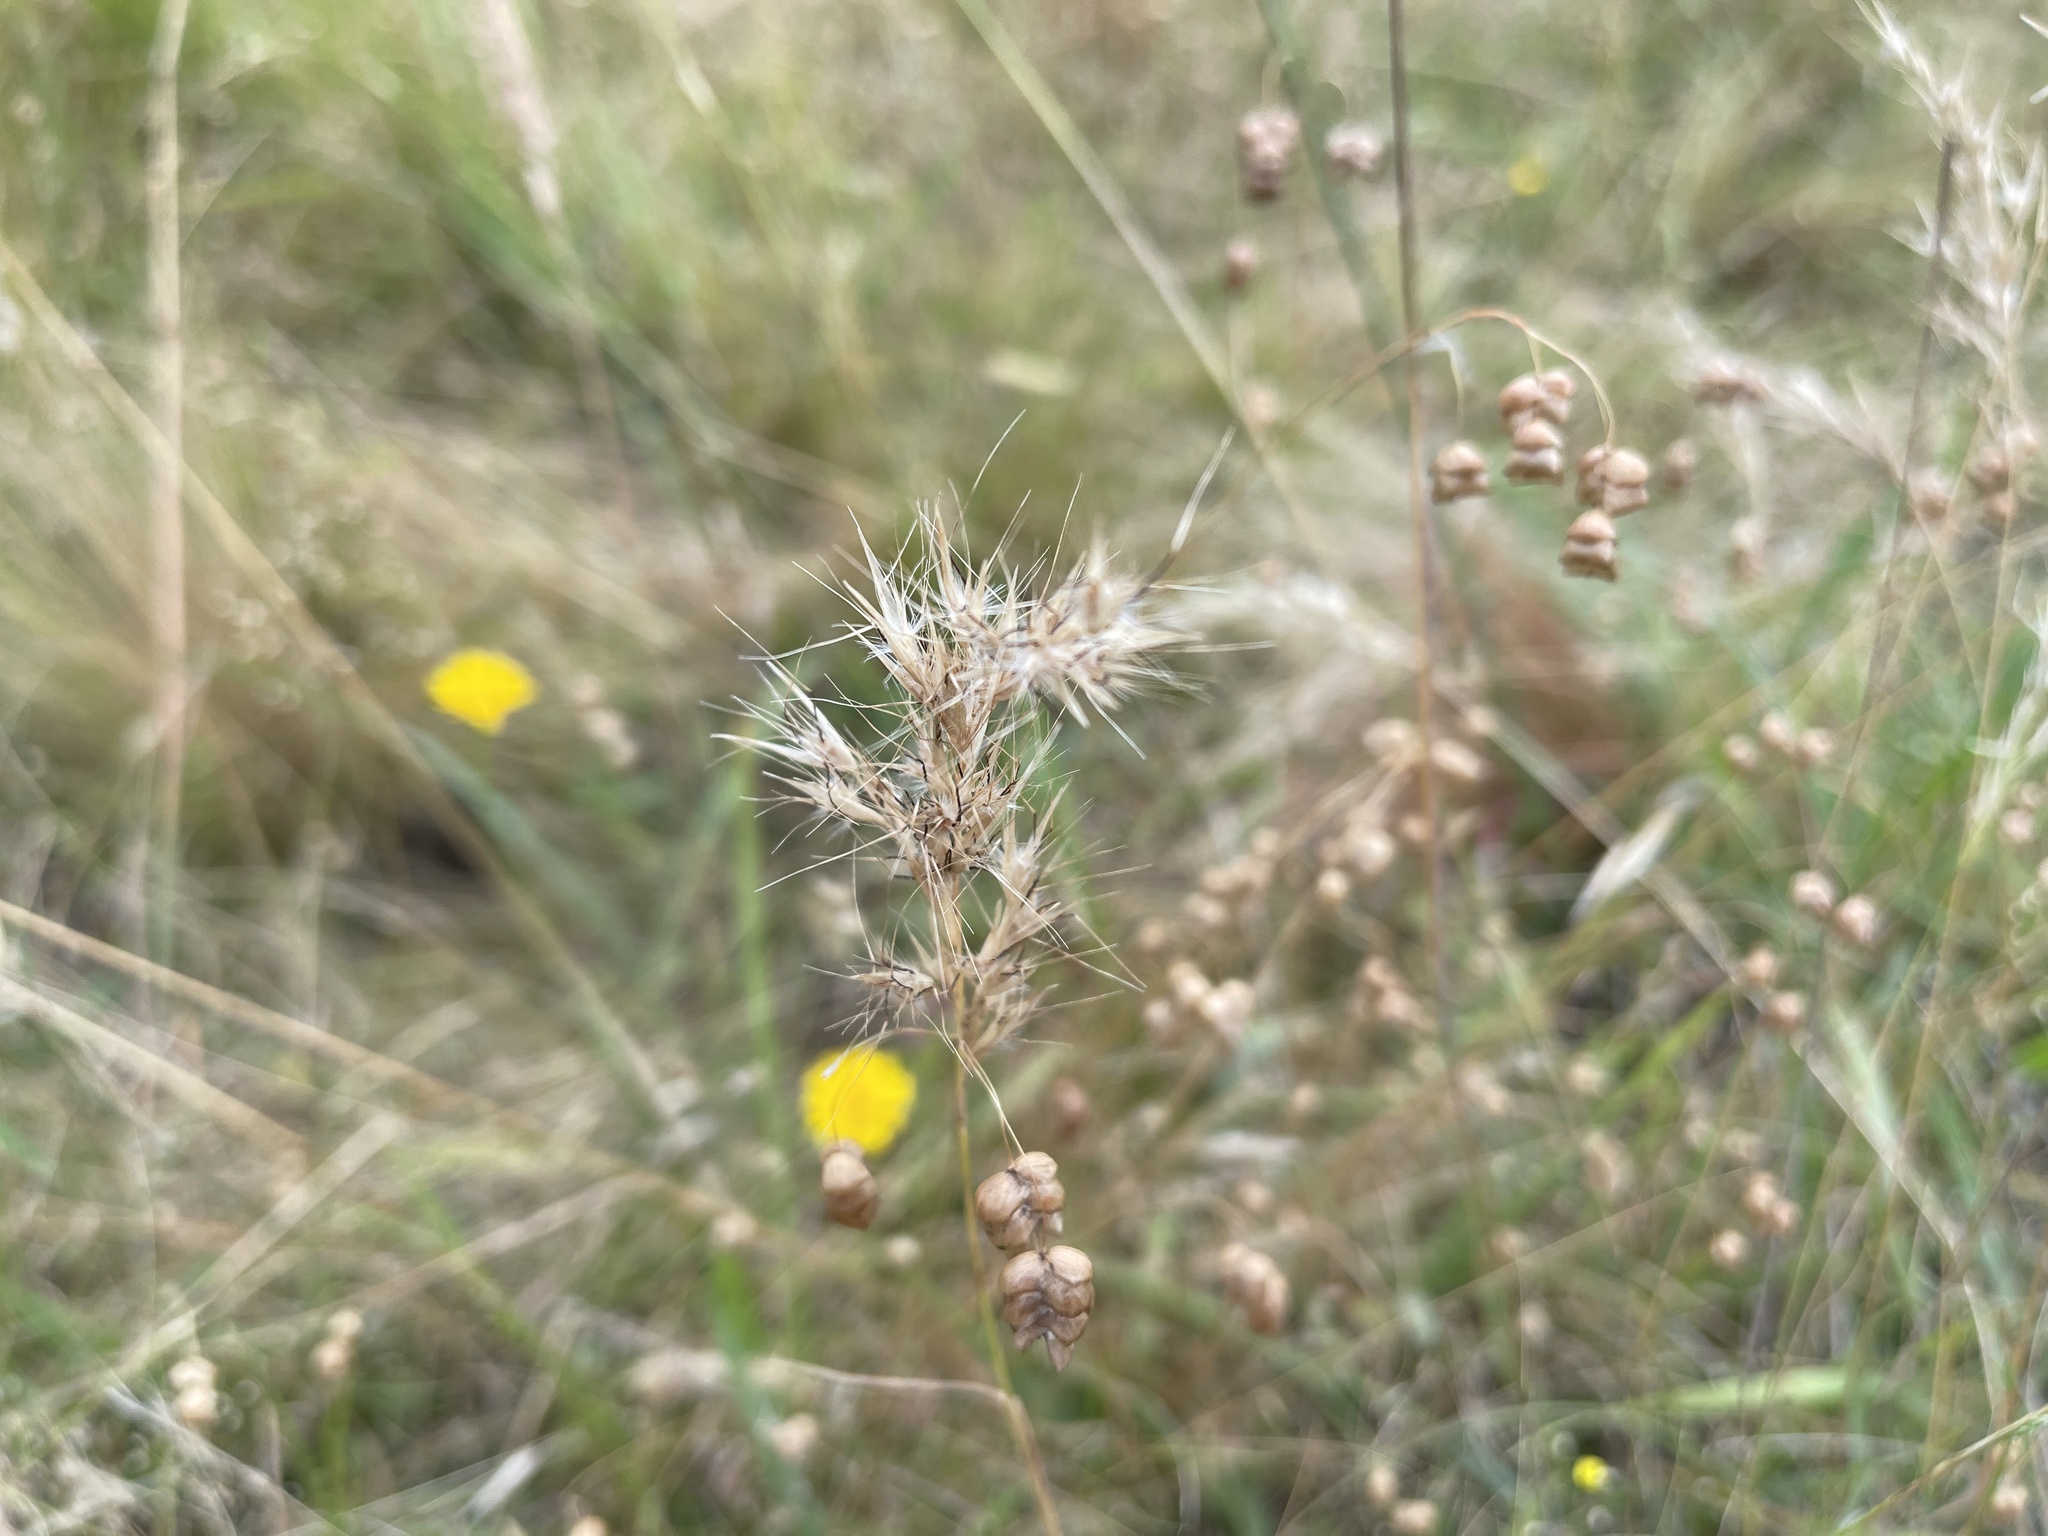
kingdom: Plantae
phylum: Tracheophyta
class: Liliopsida
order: Poales
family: Poaceae
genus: Rytidosperma
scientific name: Rytidosperma setaceum
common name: Small-flower wallaby grass
